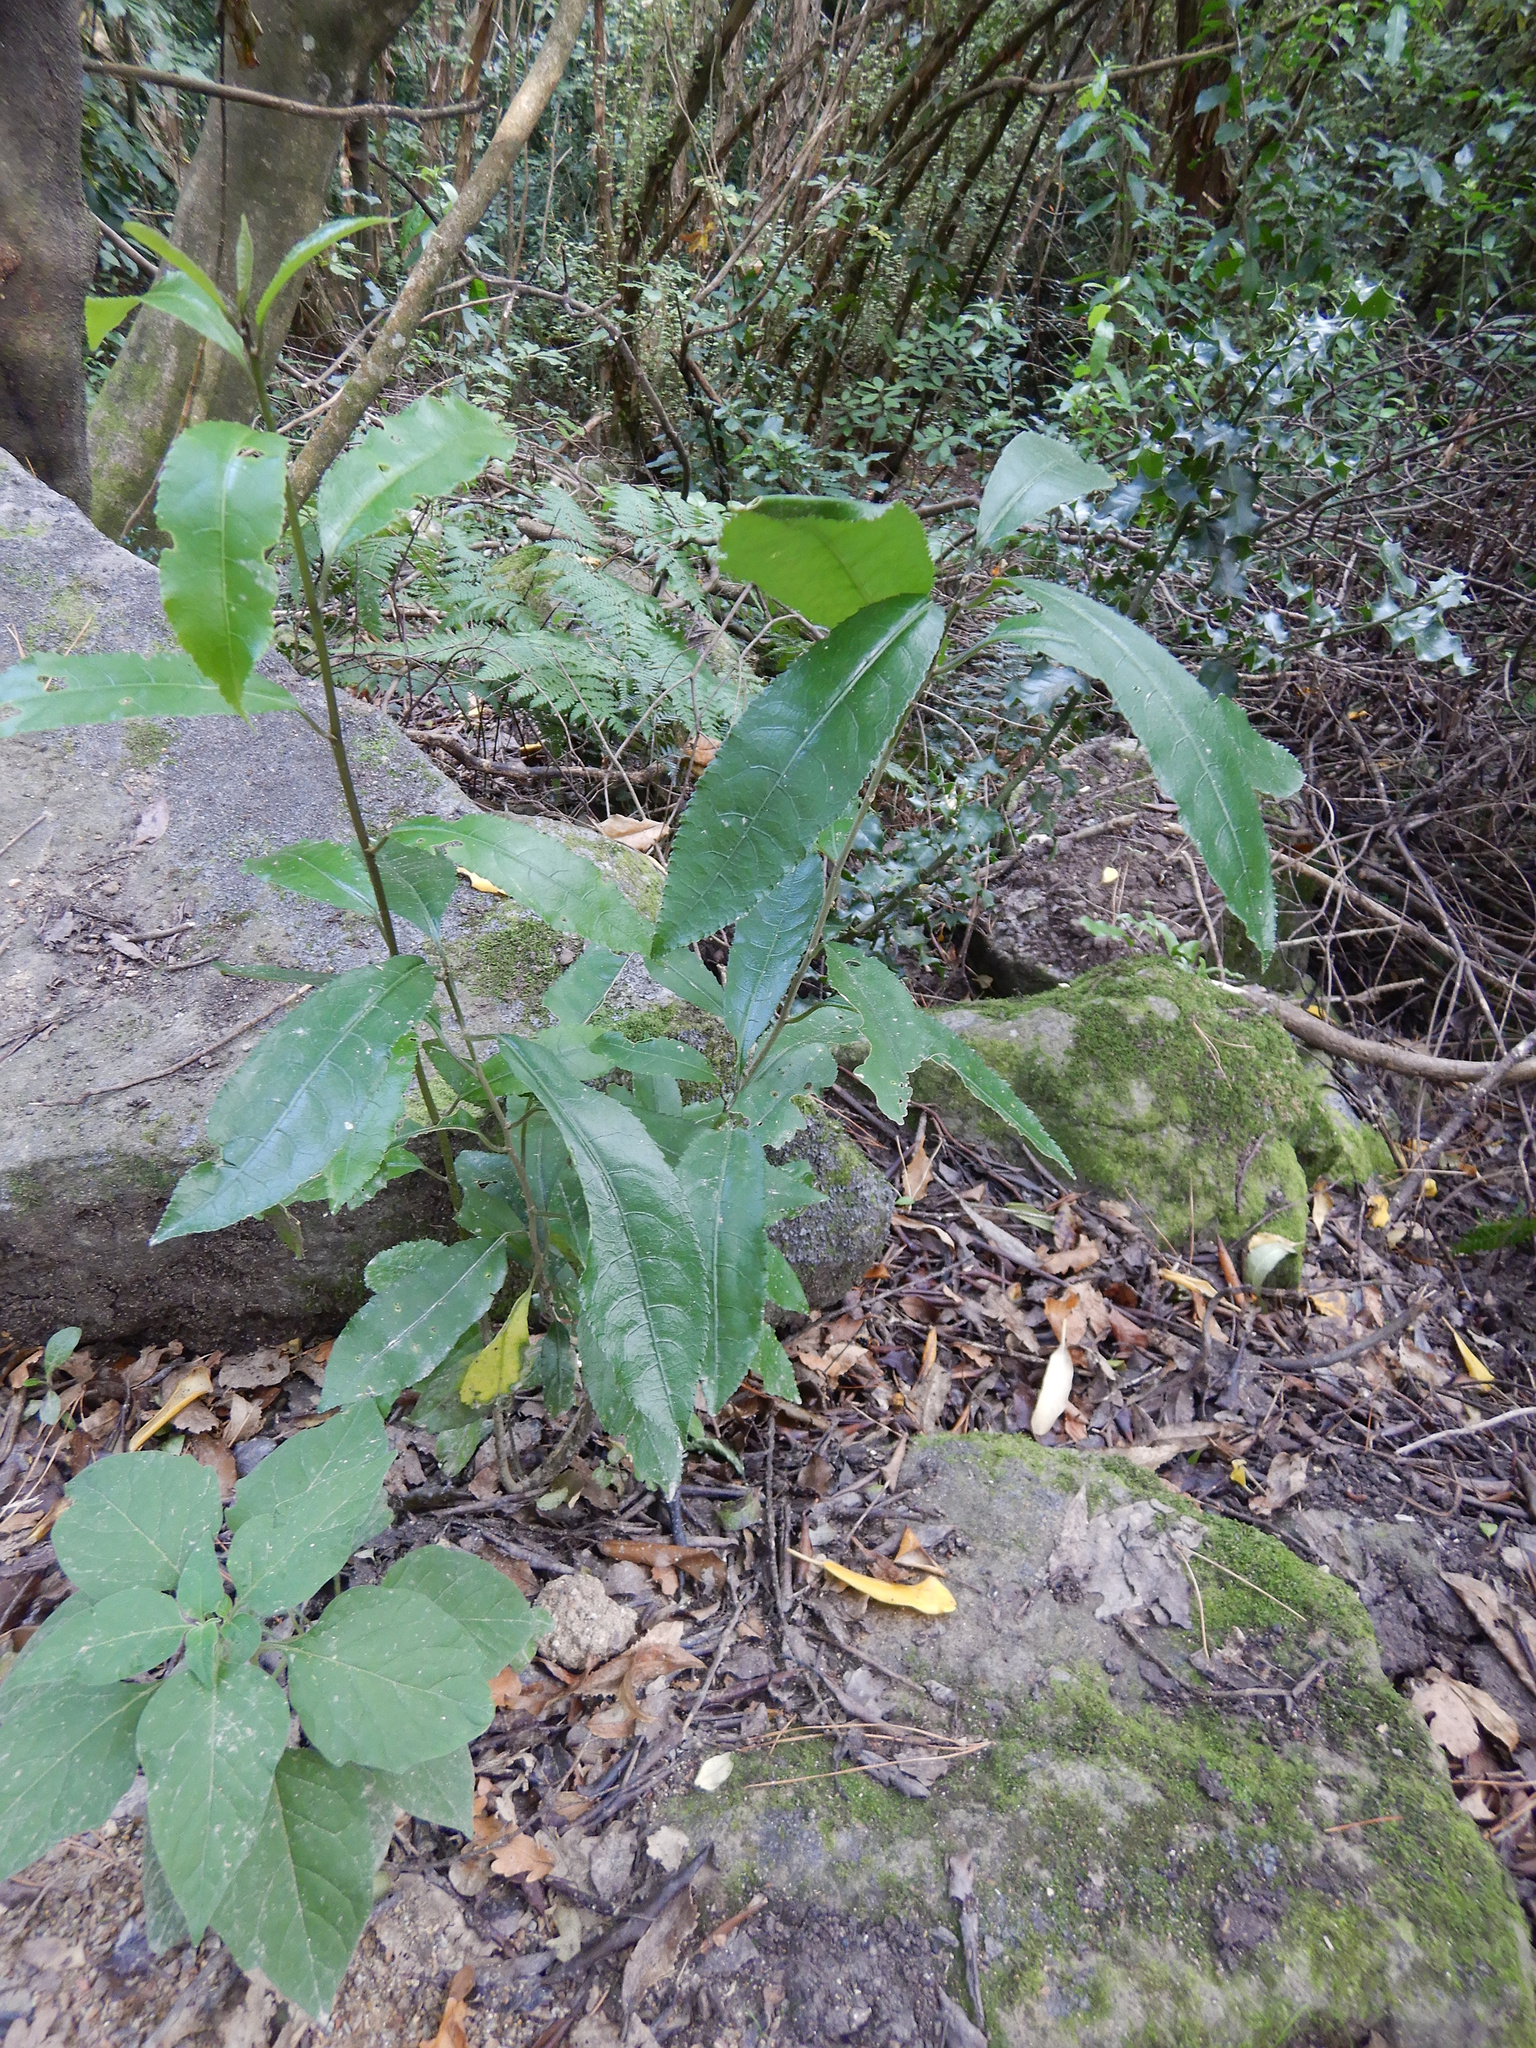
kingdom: Plantae
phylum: Tracheophyta
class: Magnoliopsida
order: Malpighiales
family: Violaceae
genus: Melicytus
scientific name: Melicytus ramiflorus
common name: Mahoe
